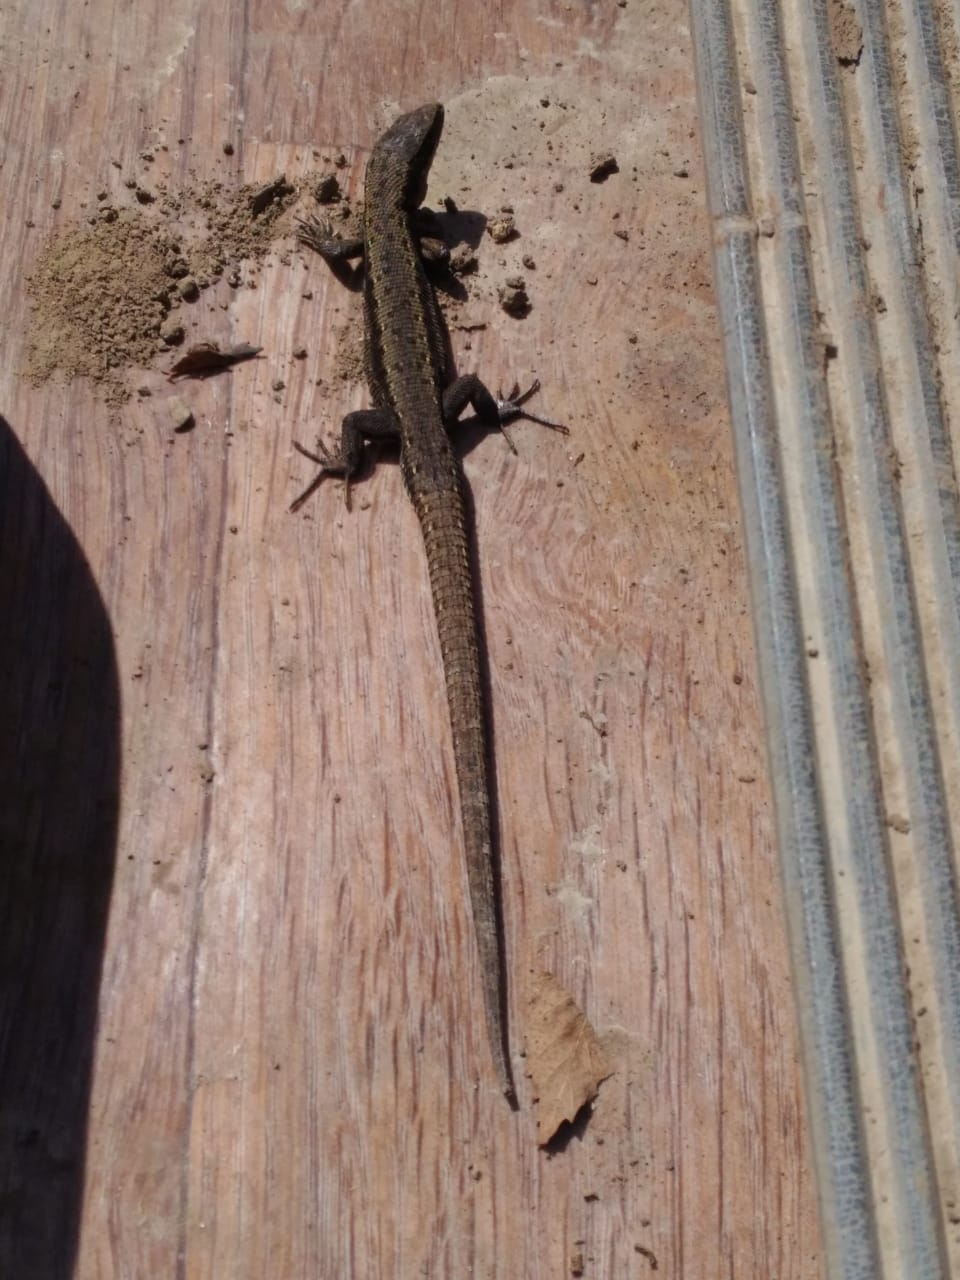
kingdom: Animalia
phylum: Chordata
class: Squamata
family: Lacertidae
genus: Zootoca
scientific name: Zootoca vivipara
